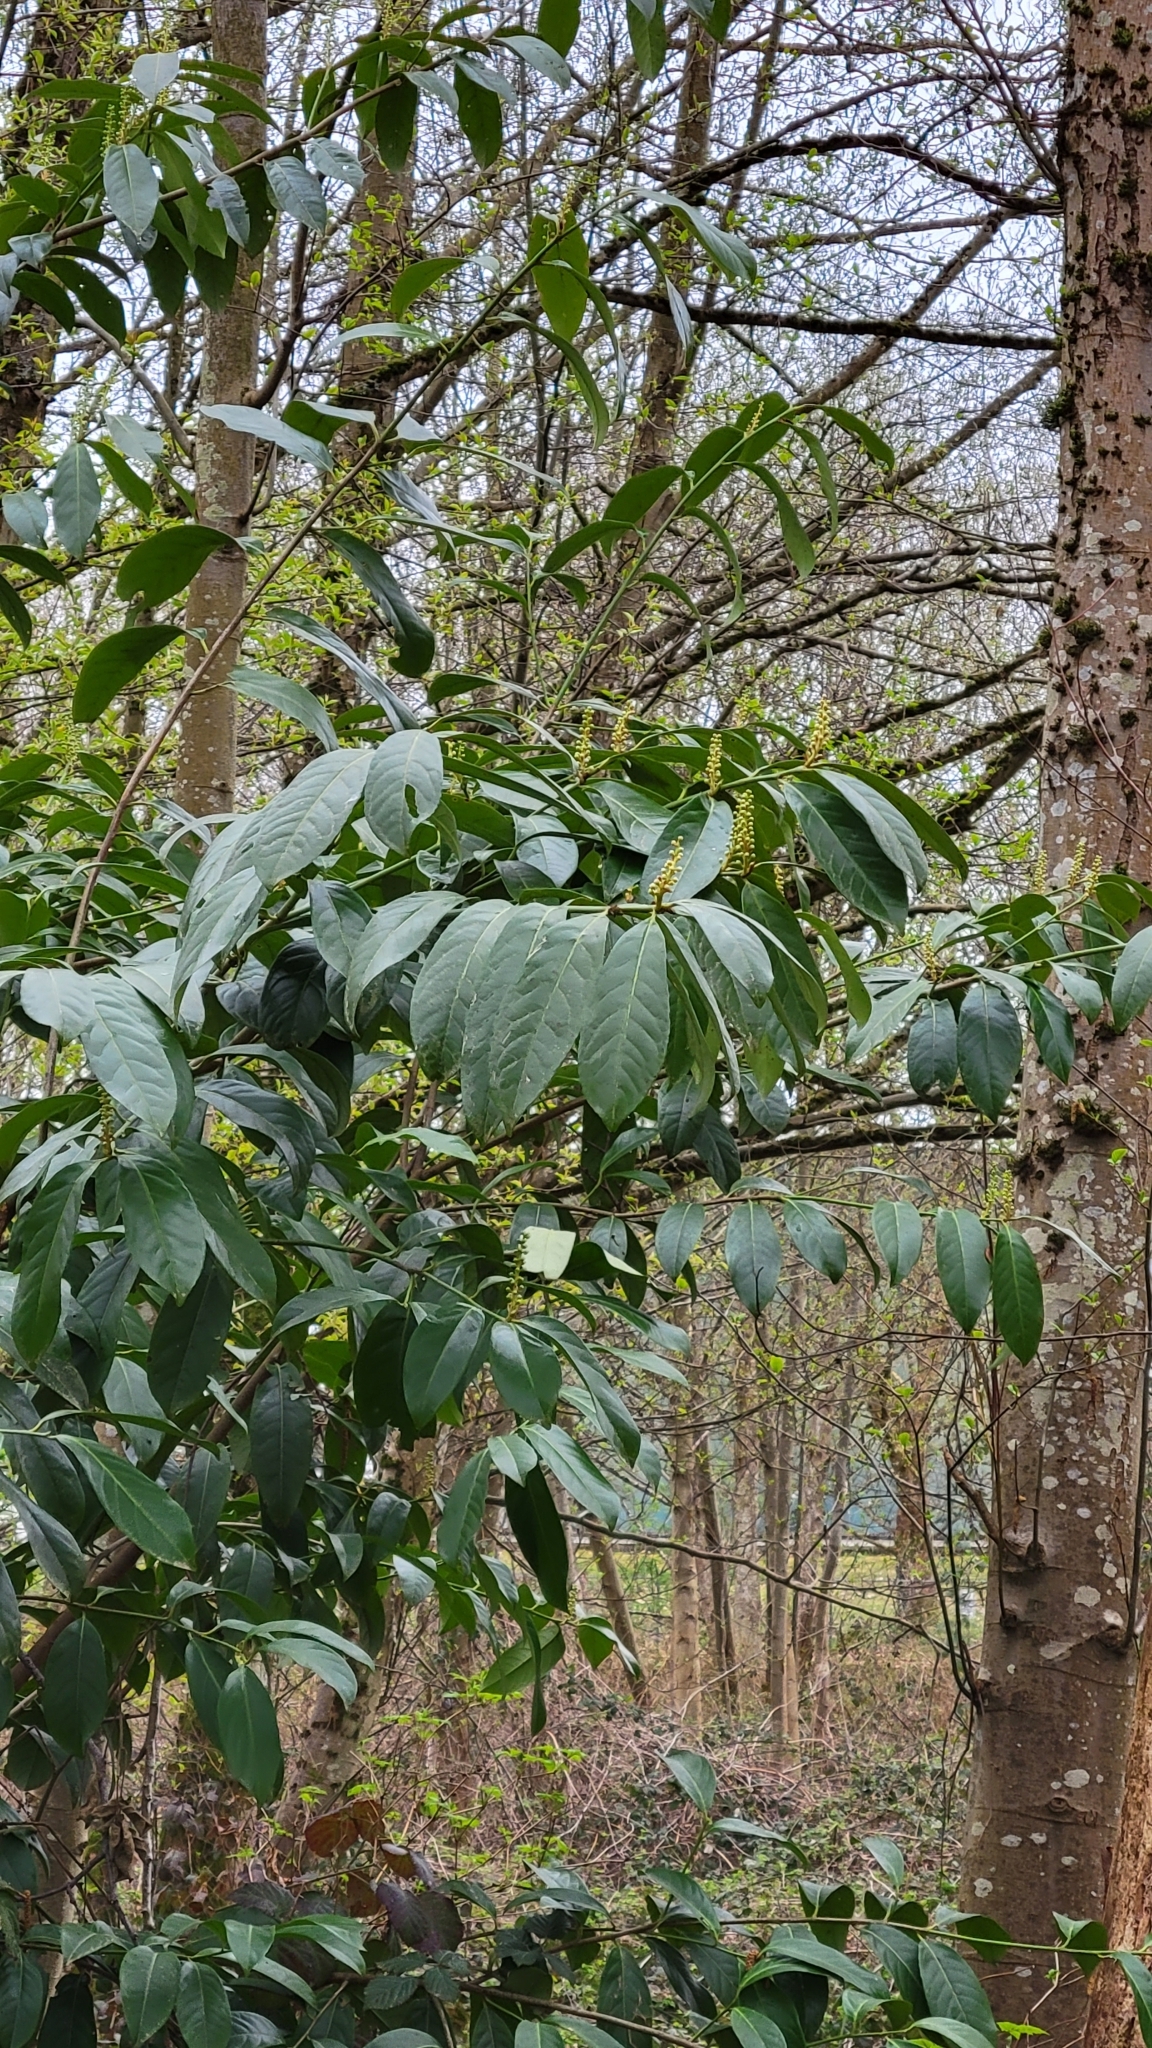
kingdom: Plantae
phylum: Tracheophyta
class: Magnoliopsida
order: Rosales
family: Rosaceae
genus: Prunus
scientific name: Prunus laurocerasus
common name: Cherry laurel
